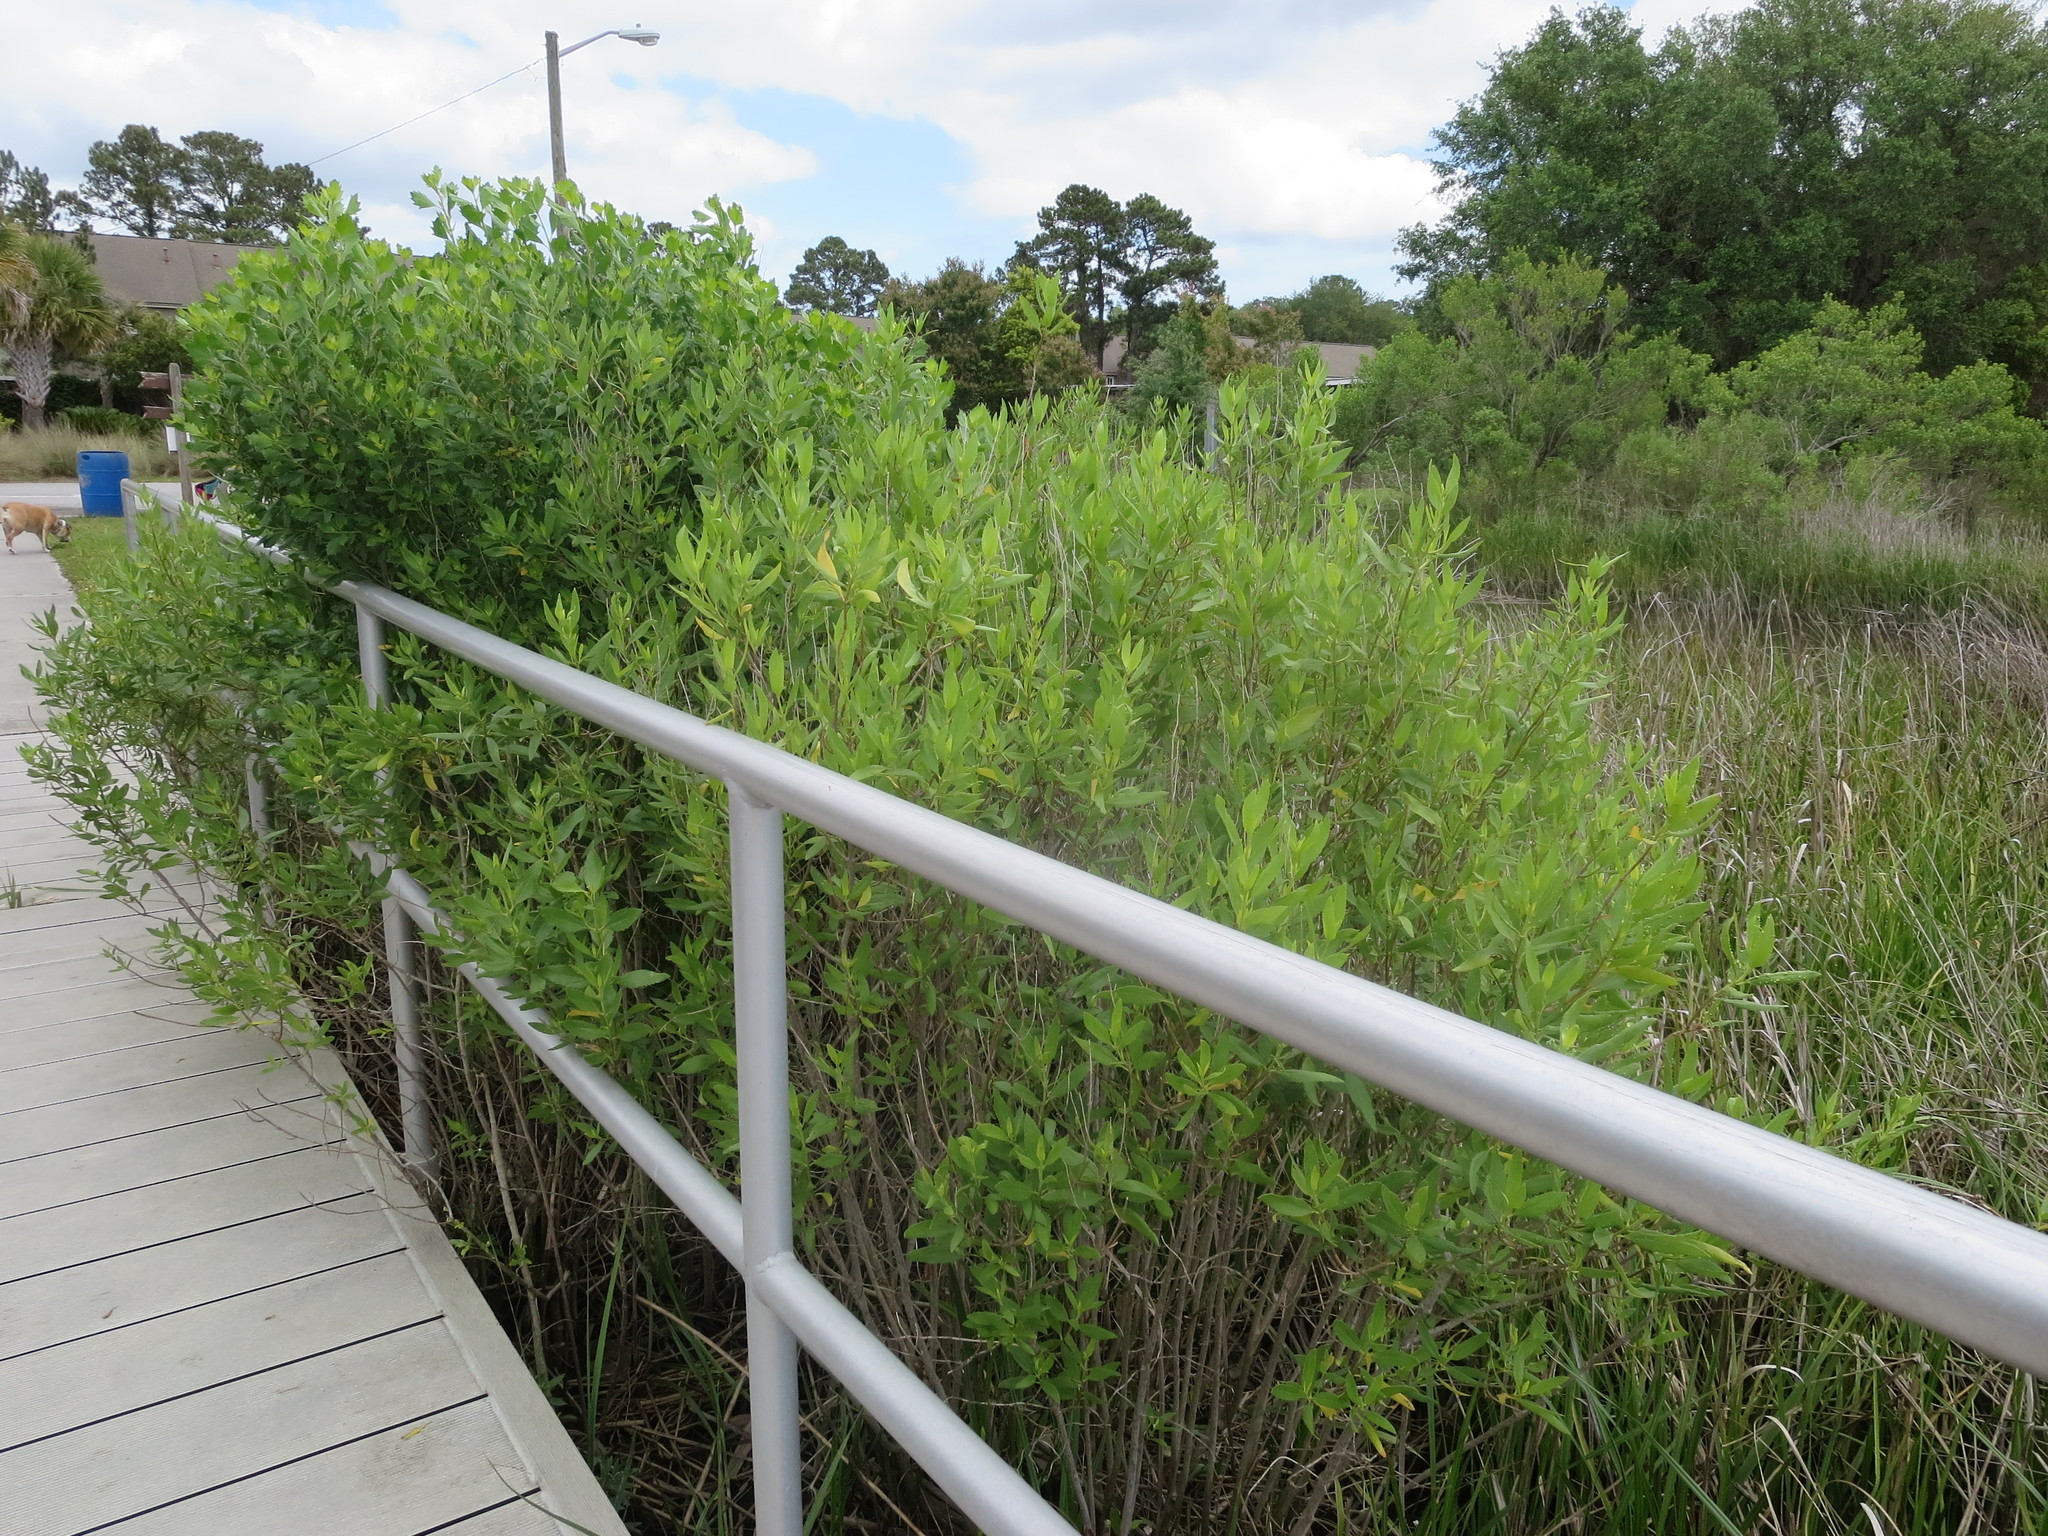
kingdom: Plantae
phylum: Tracheophyta
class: Magnoliopsida
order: Asterales
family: Asteraceae
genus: Iva
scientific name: Iva frutescens
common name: Big-leaved marsh-elder
